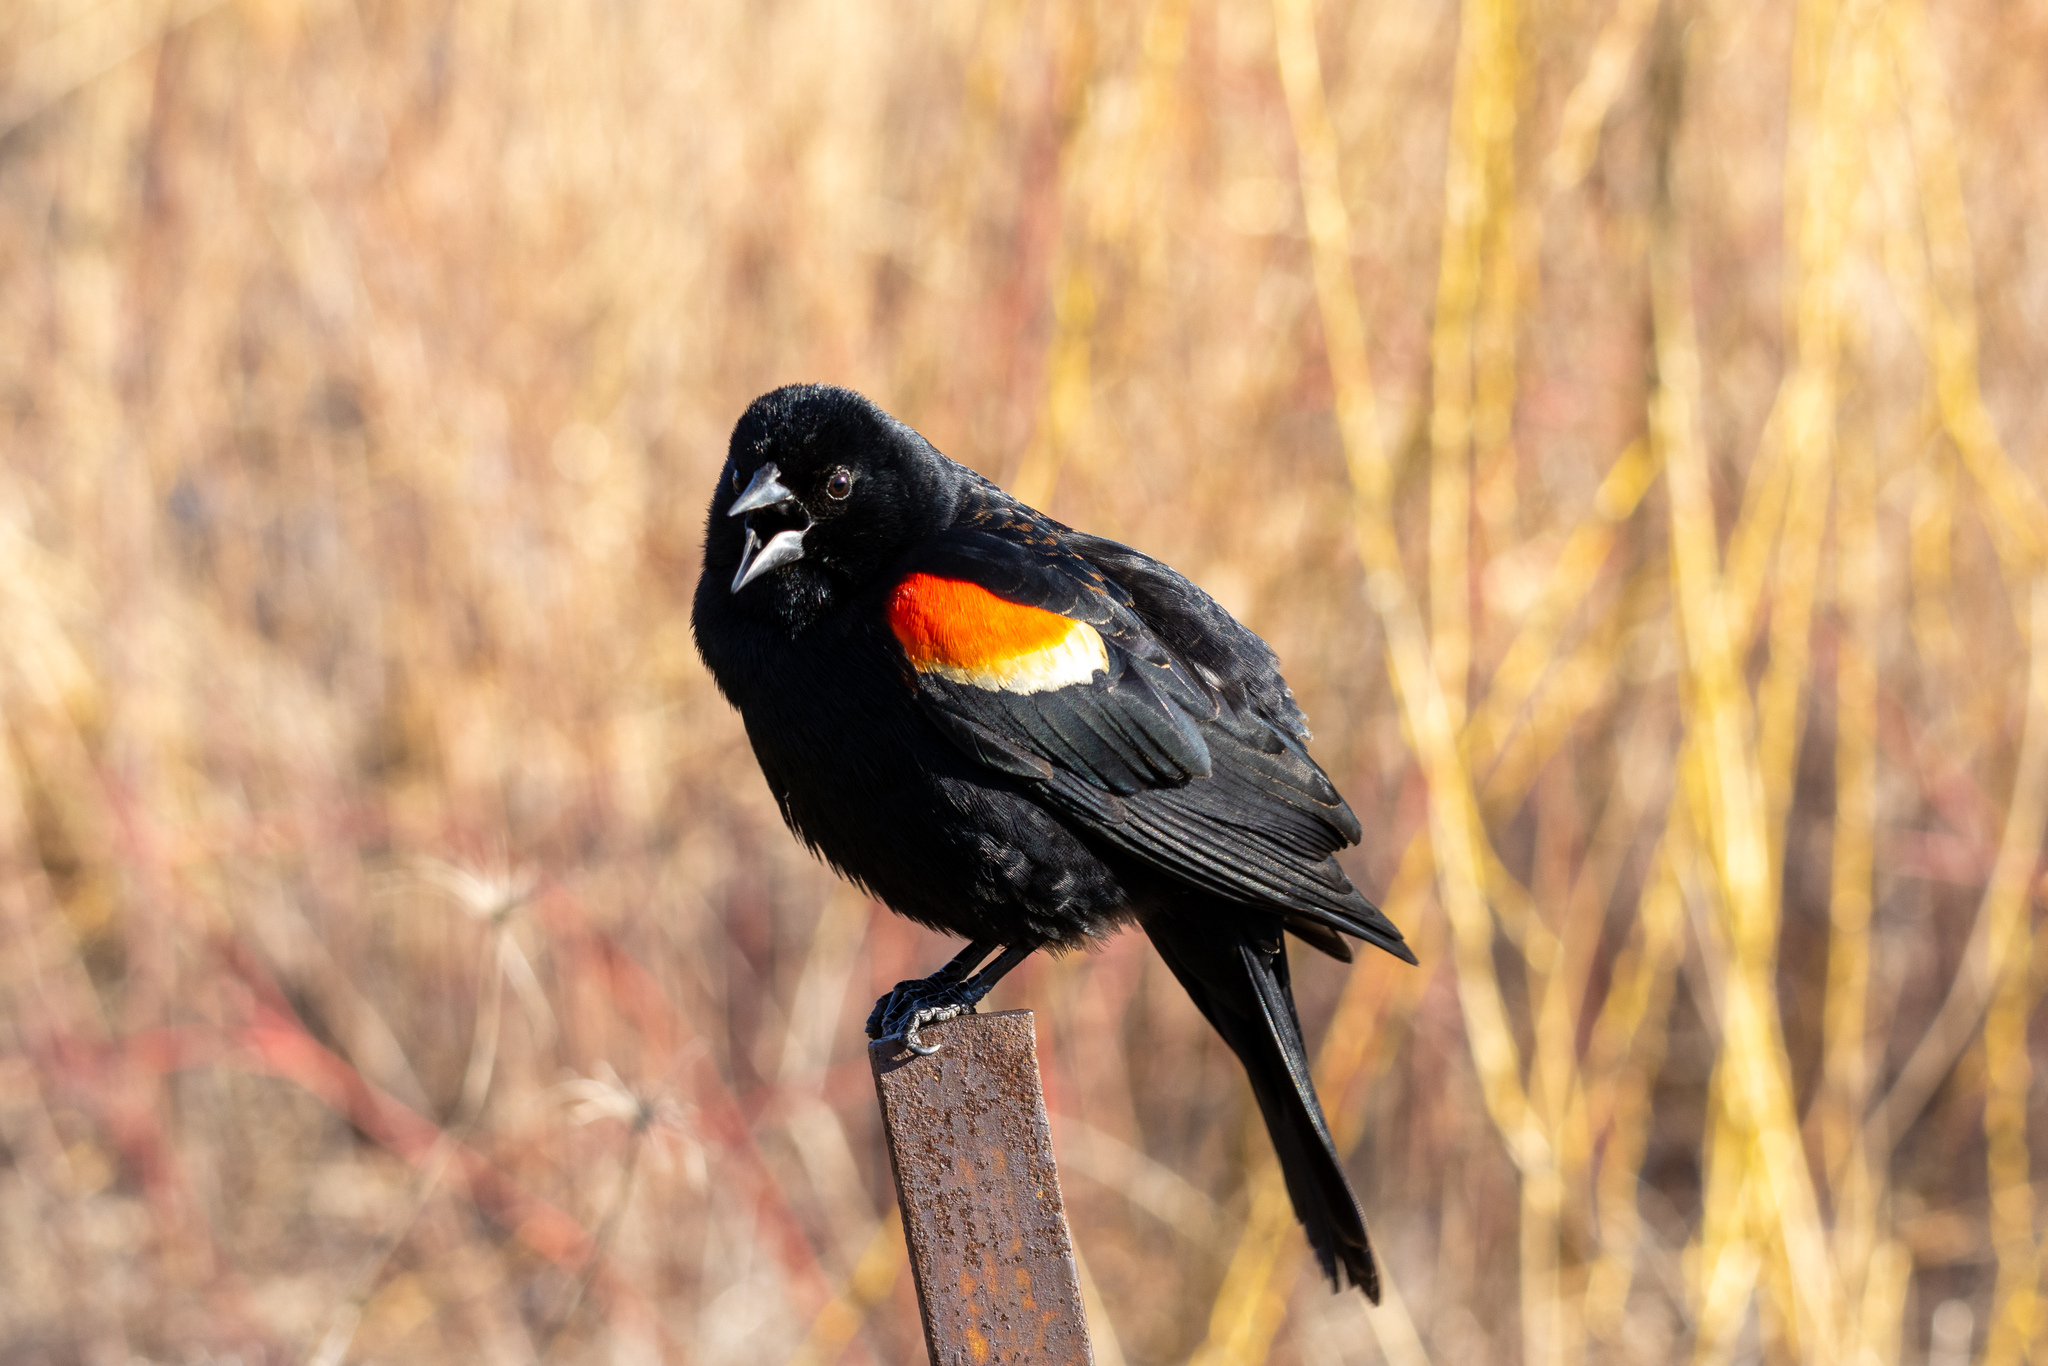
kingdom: Animalia
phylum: Chordata
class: Aves
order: Passeriformes
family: Icteridae
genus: Agelaius
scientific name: Agelaius phoeniceus
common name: Red-winged blackbird
